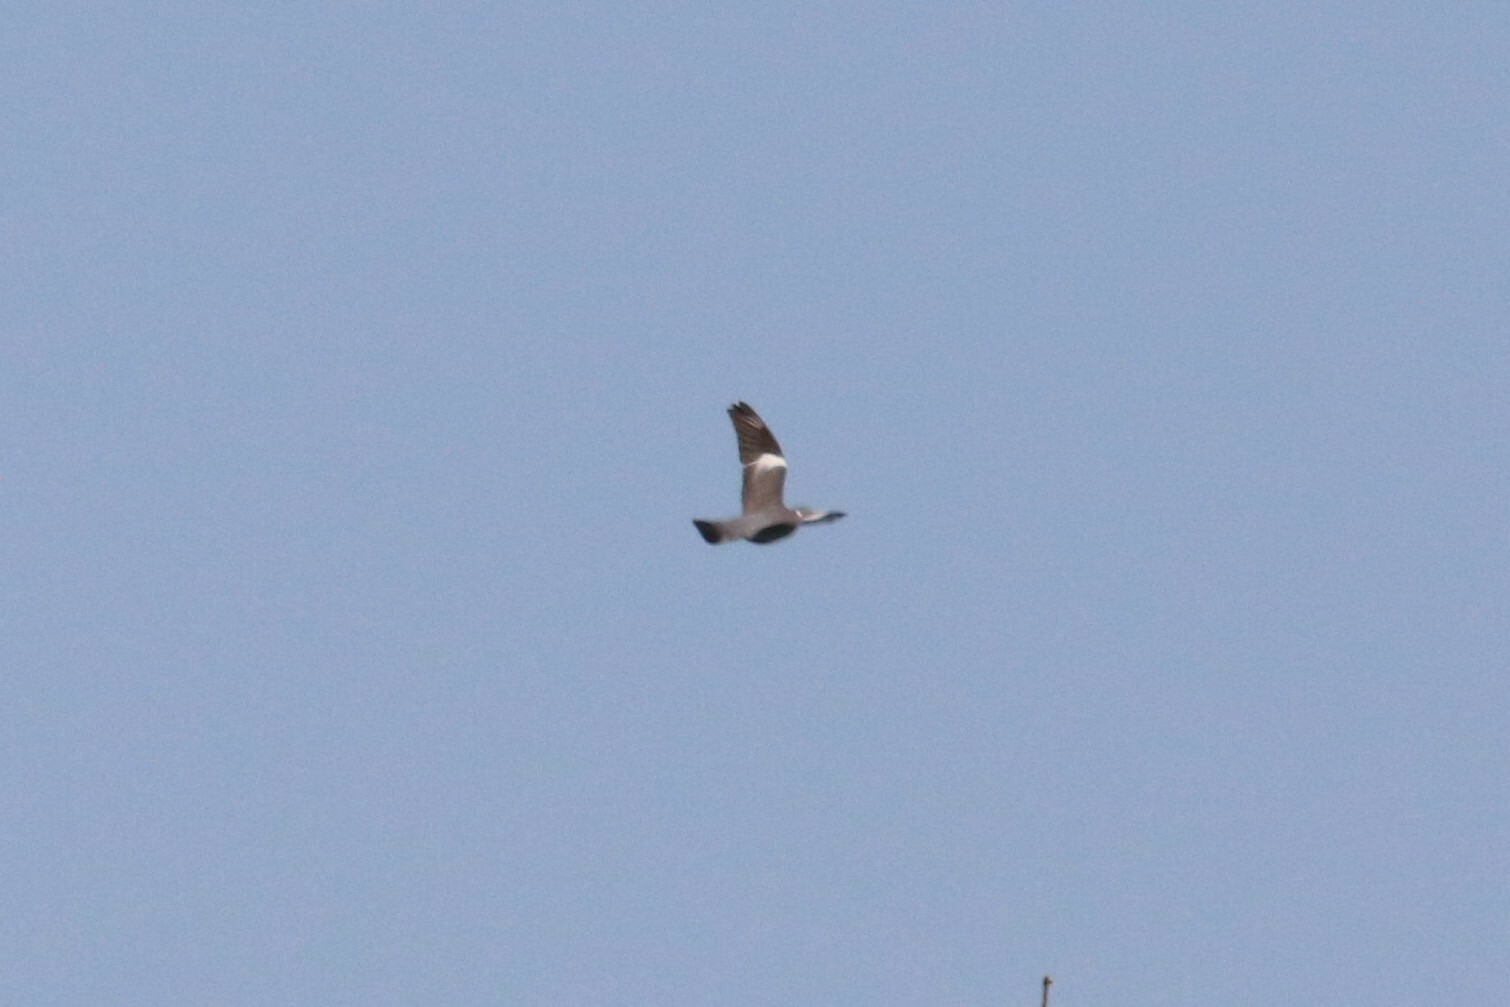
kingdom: Animalia
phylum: Chordata
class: Aves
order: Columbiformes
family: Columbidae
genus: Columba
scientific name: Columba palumbus
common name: Common wood pigeon
